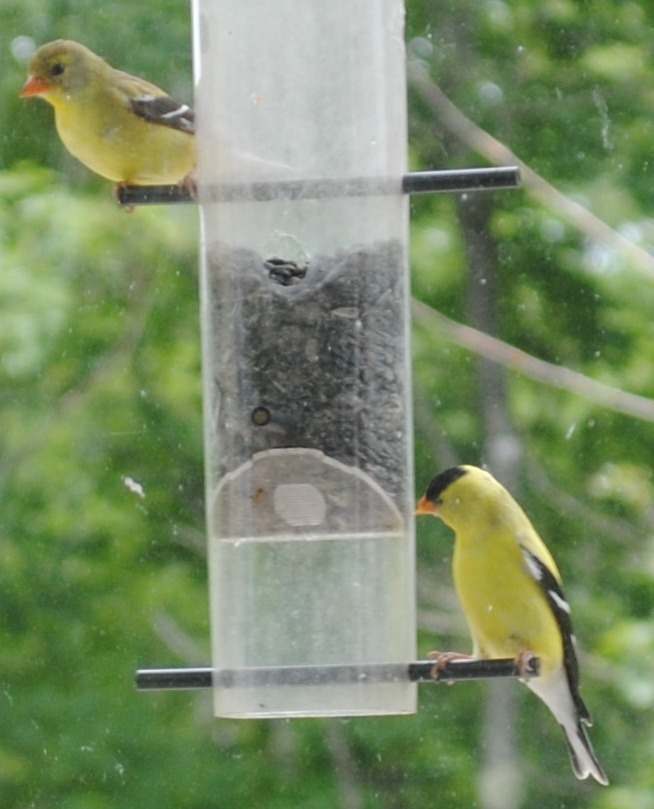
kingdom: Animalia
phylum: Chordata
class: Aves
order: Passeriformes
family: Fringillidae
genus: Spinus
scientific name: Spinus tristis
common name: American goldfinch
